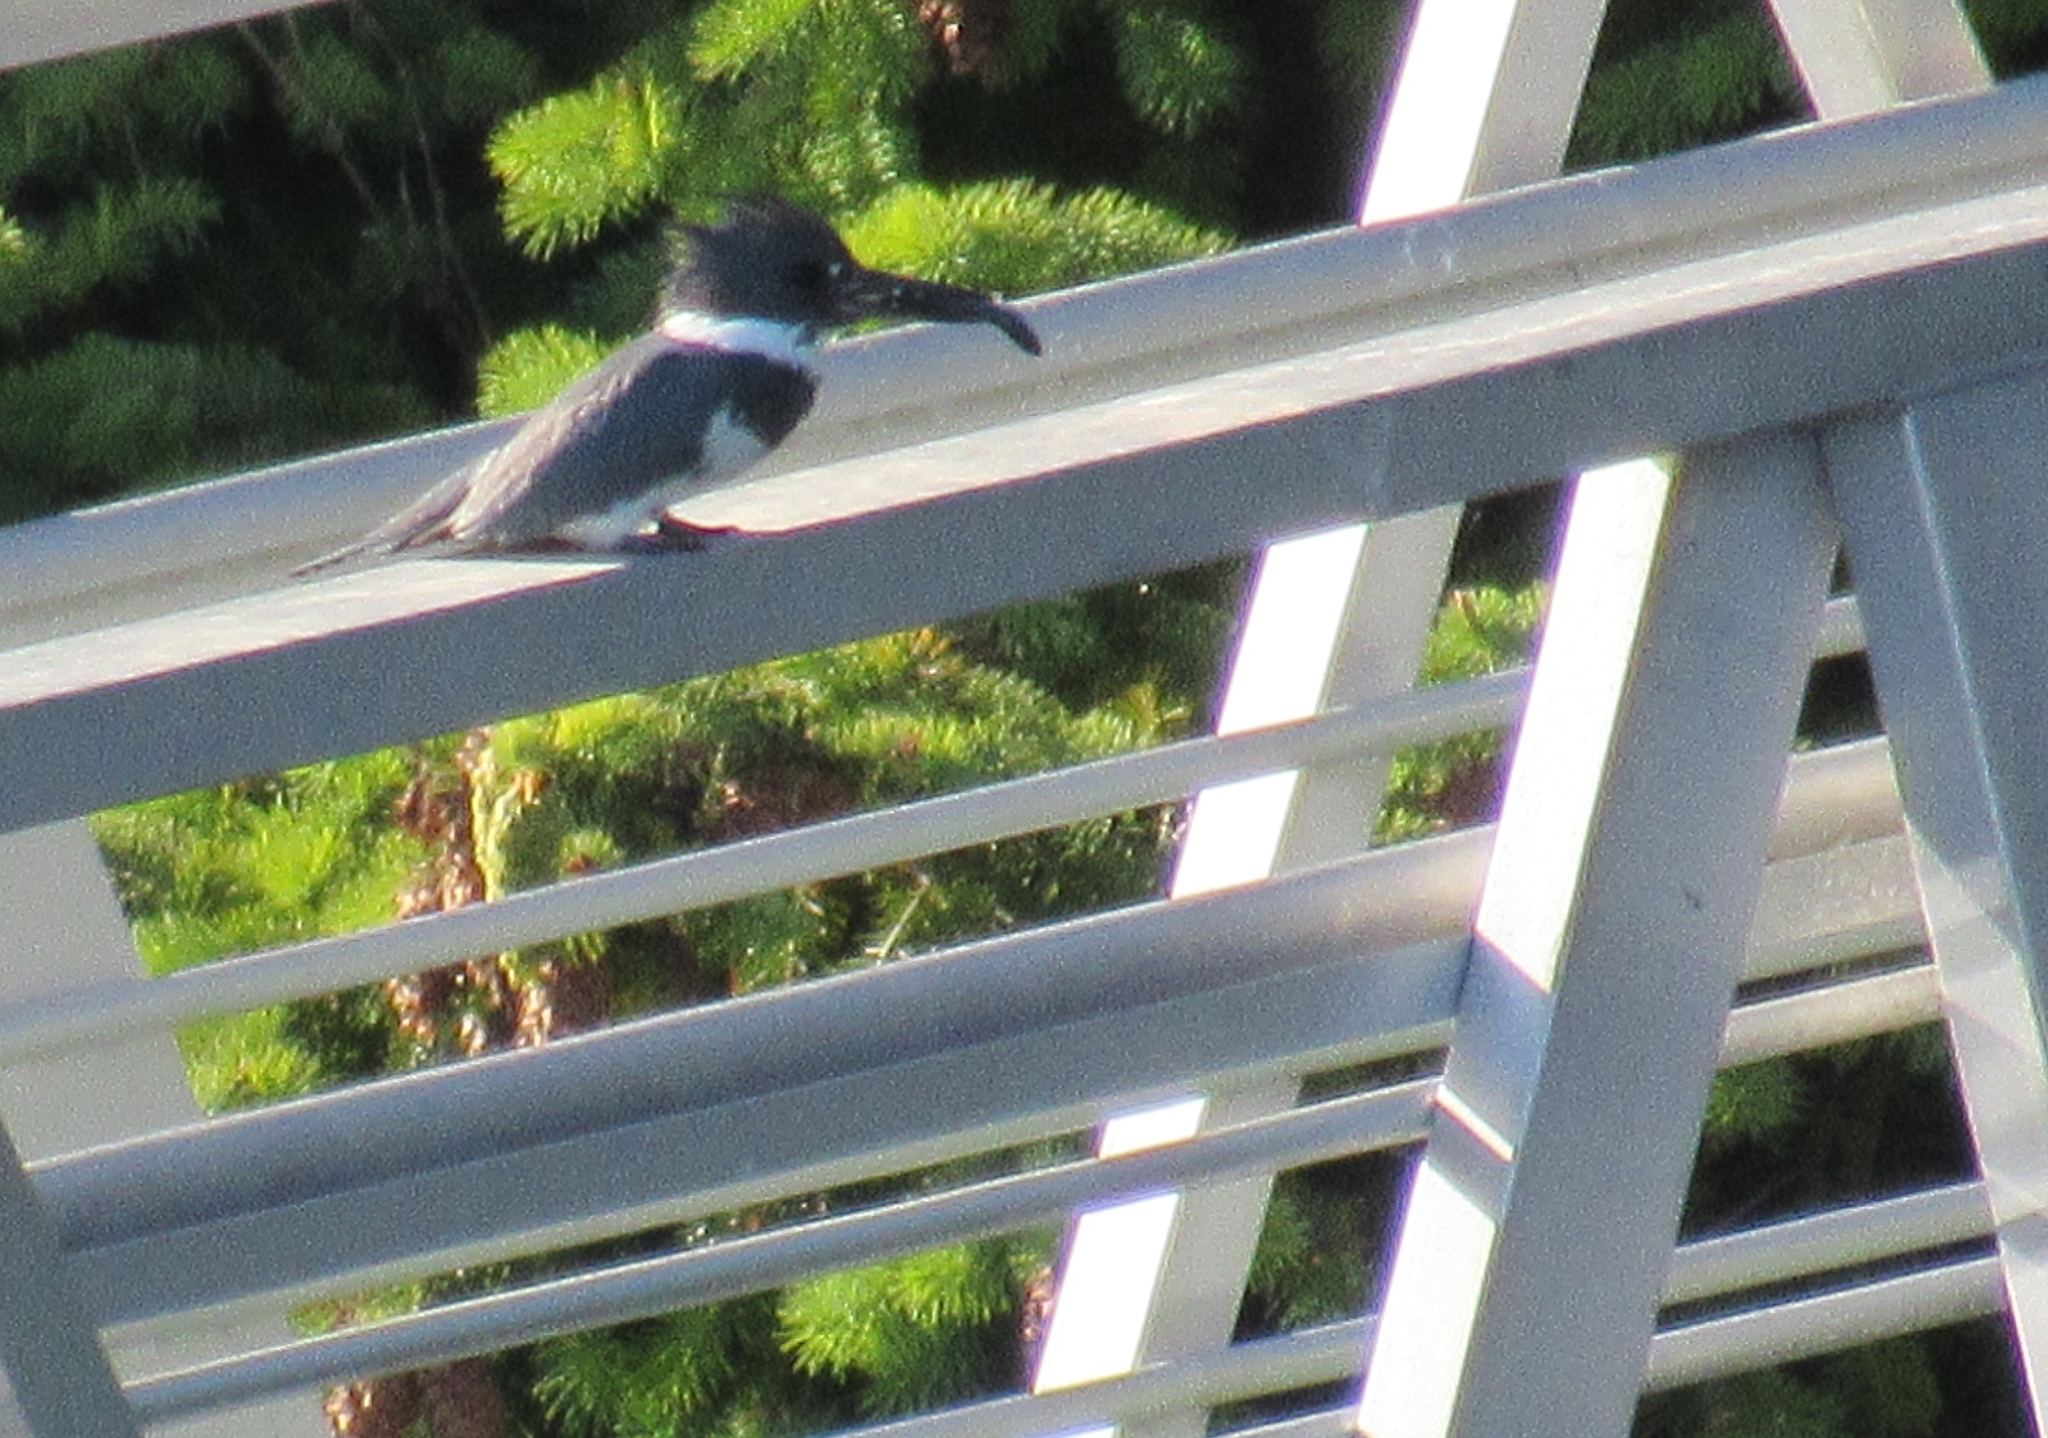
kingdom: Animalia
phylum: Chordata
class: Aves
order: Coraciiformes
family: Alcedinidae
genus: Megaceryle
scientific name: Megaceryle alcyon
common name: Belted kingfisher
